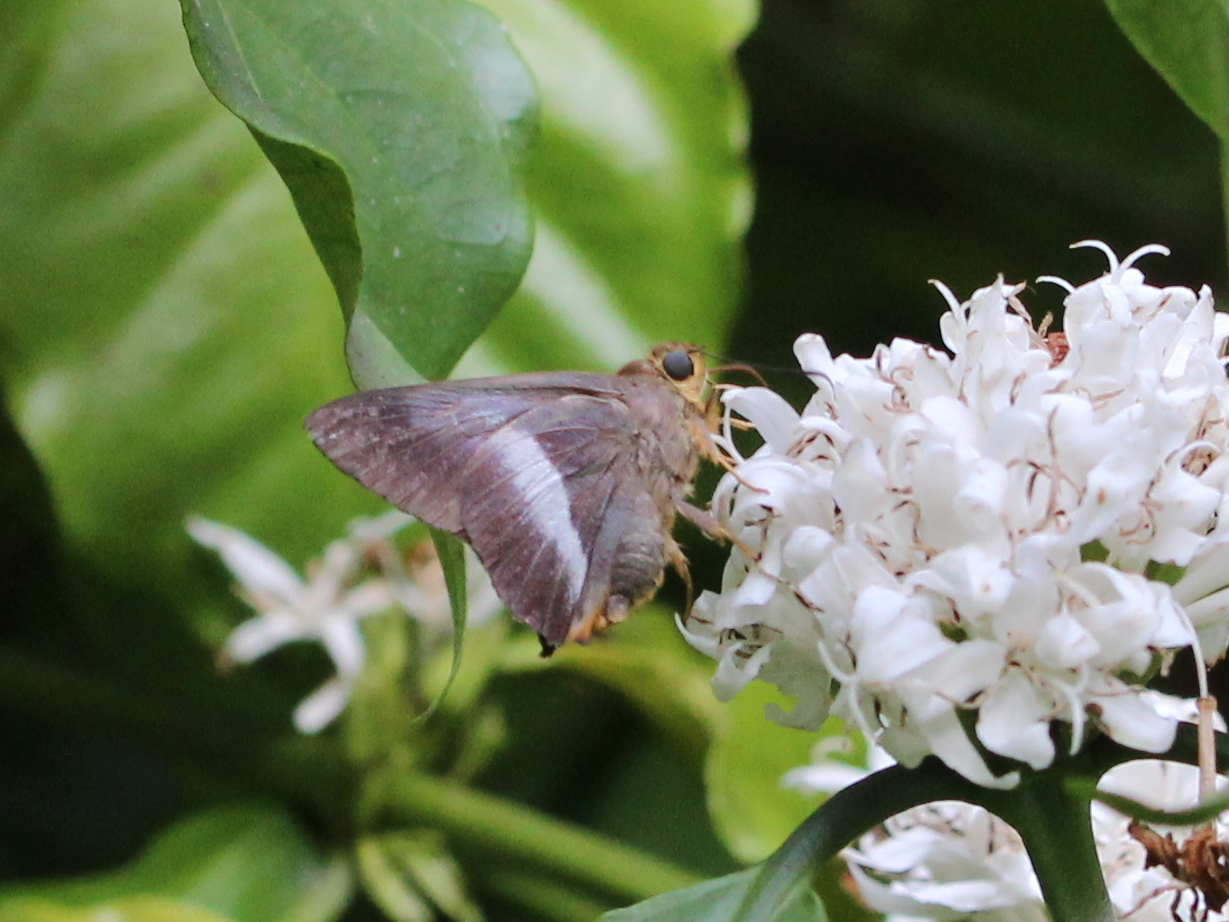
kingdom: Animalia
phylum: Arthropoda
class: Insecta
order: Lepidoptera
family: Hesperiidae
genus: Bibasis
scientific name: Bibasis sena
